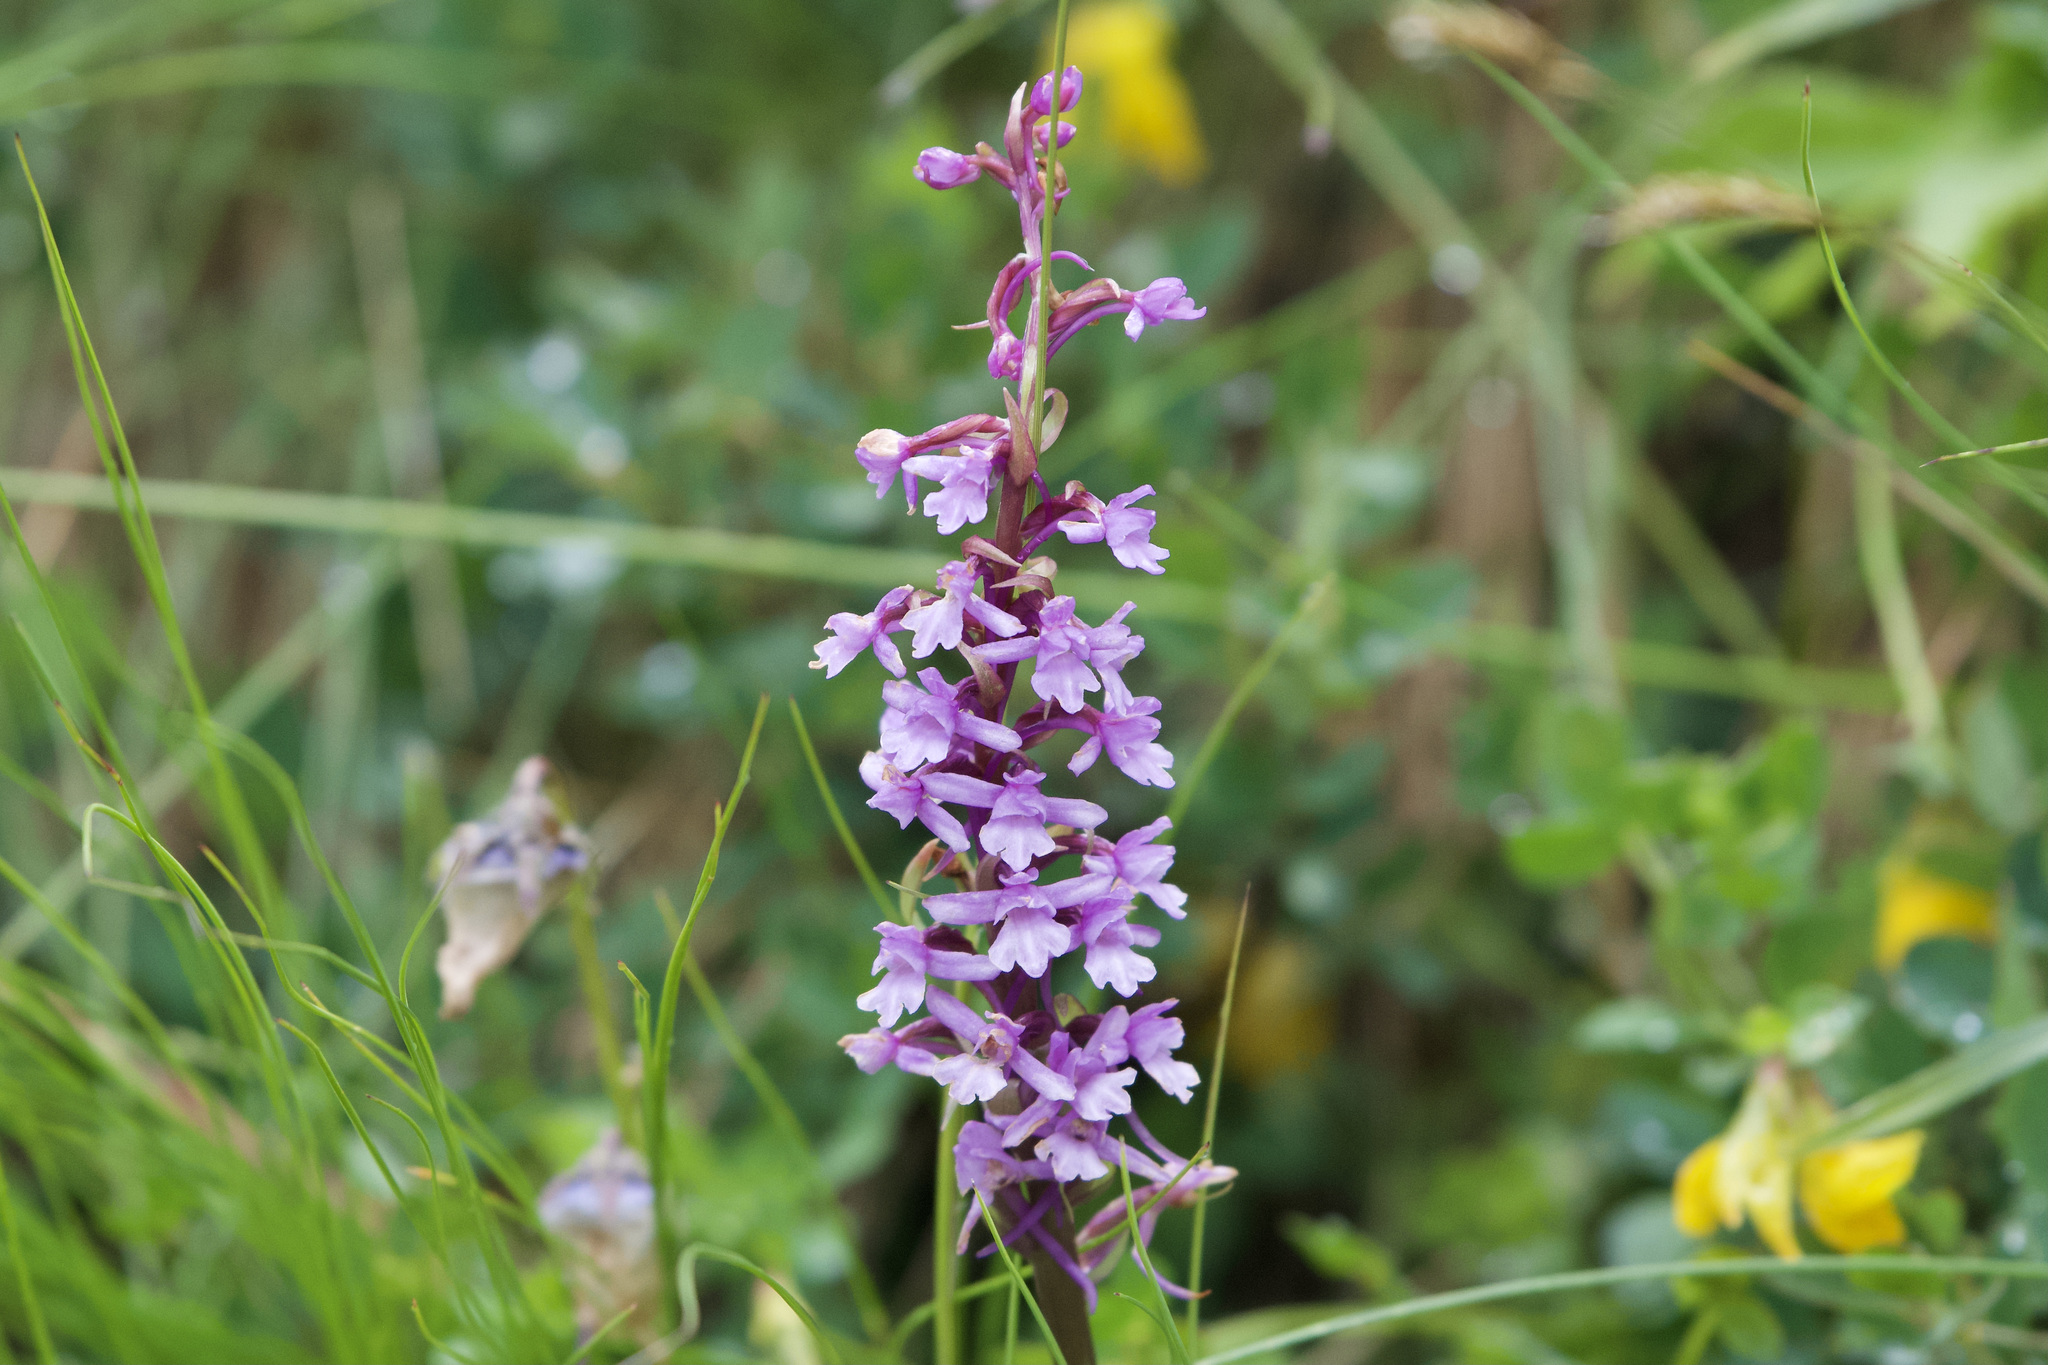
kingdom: Plantae
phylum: Tracheophyta
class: Liliopsida
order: Asparagales
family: Orchidaceae
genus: Gymnadenia
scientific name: Gymnadenia conopsea
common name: Fragrant orchid
